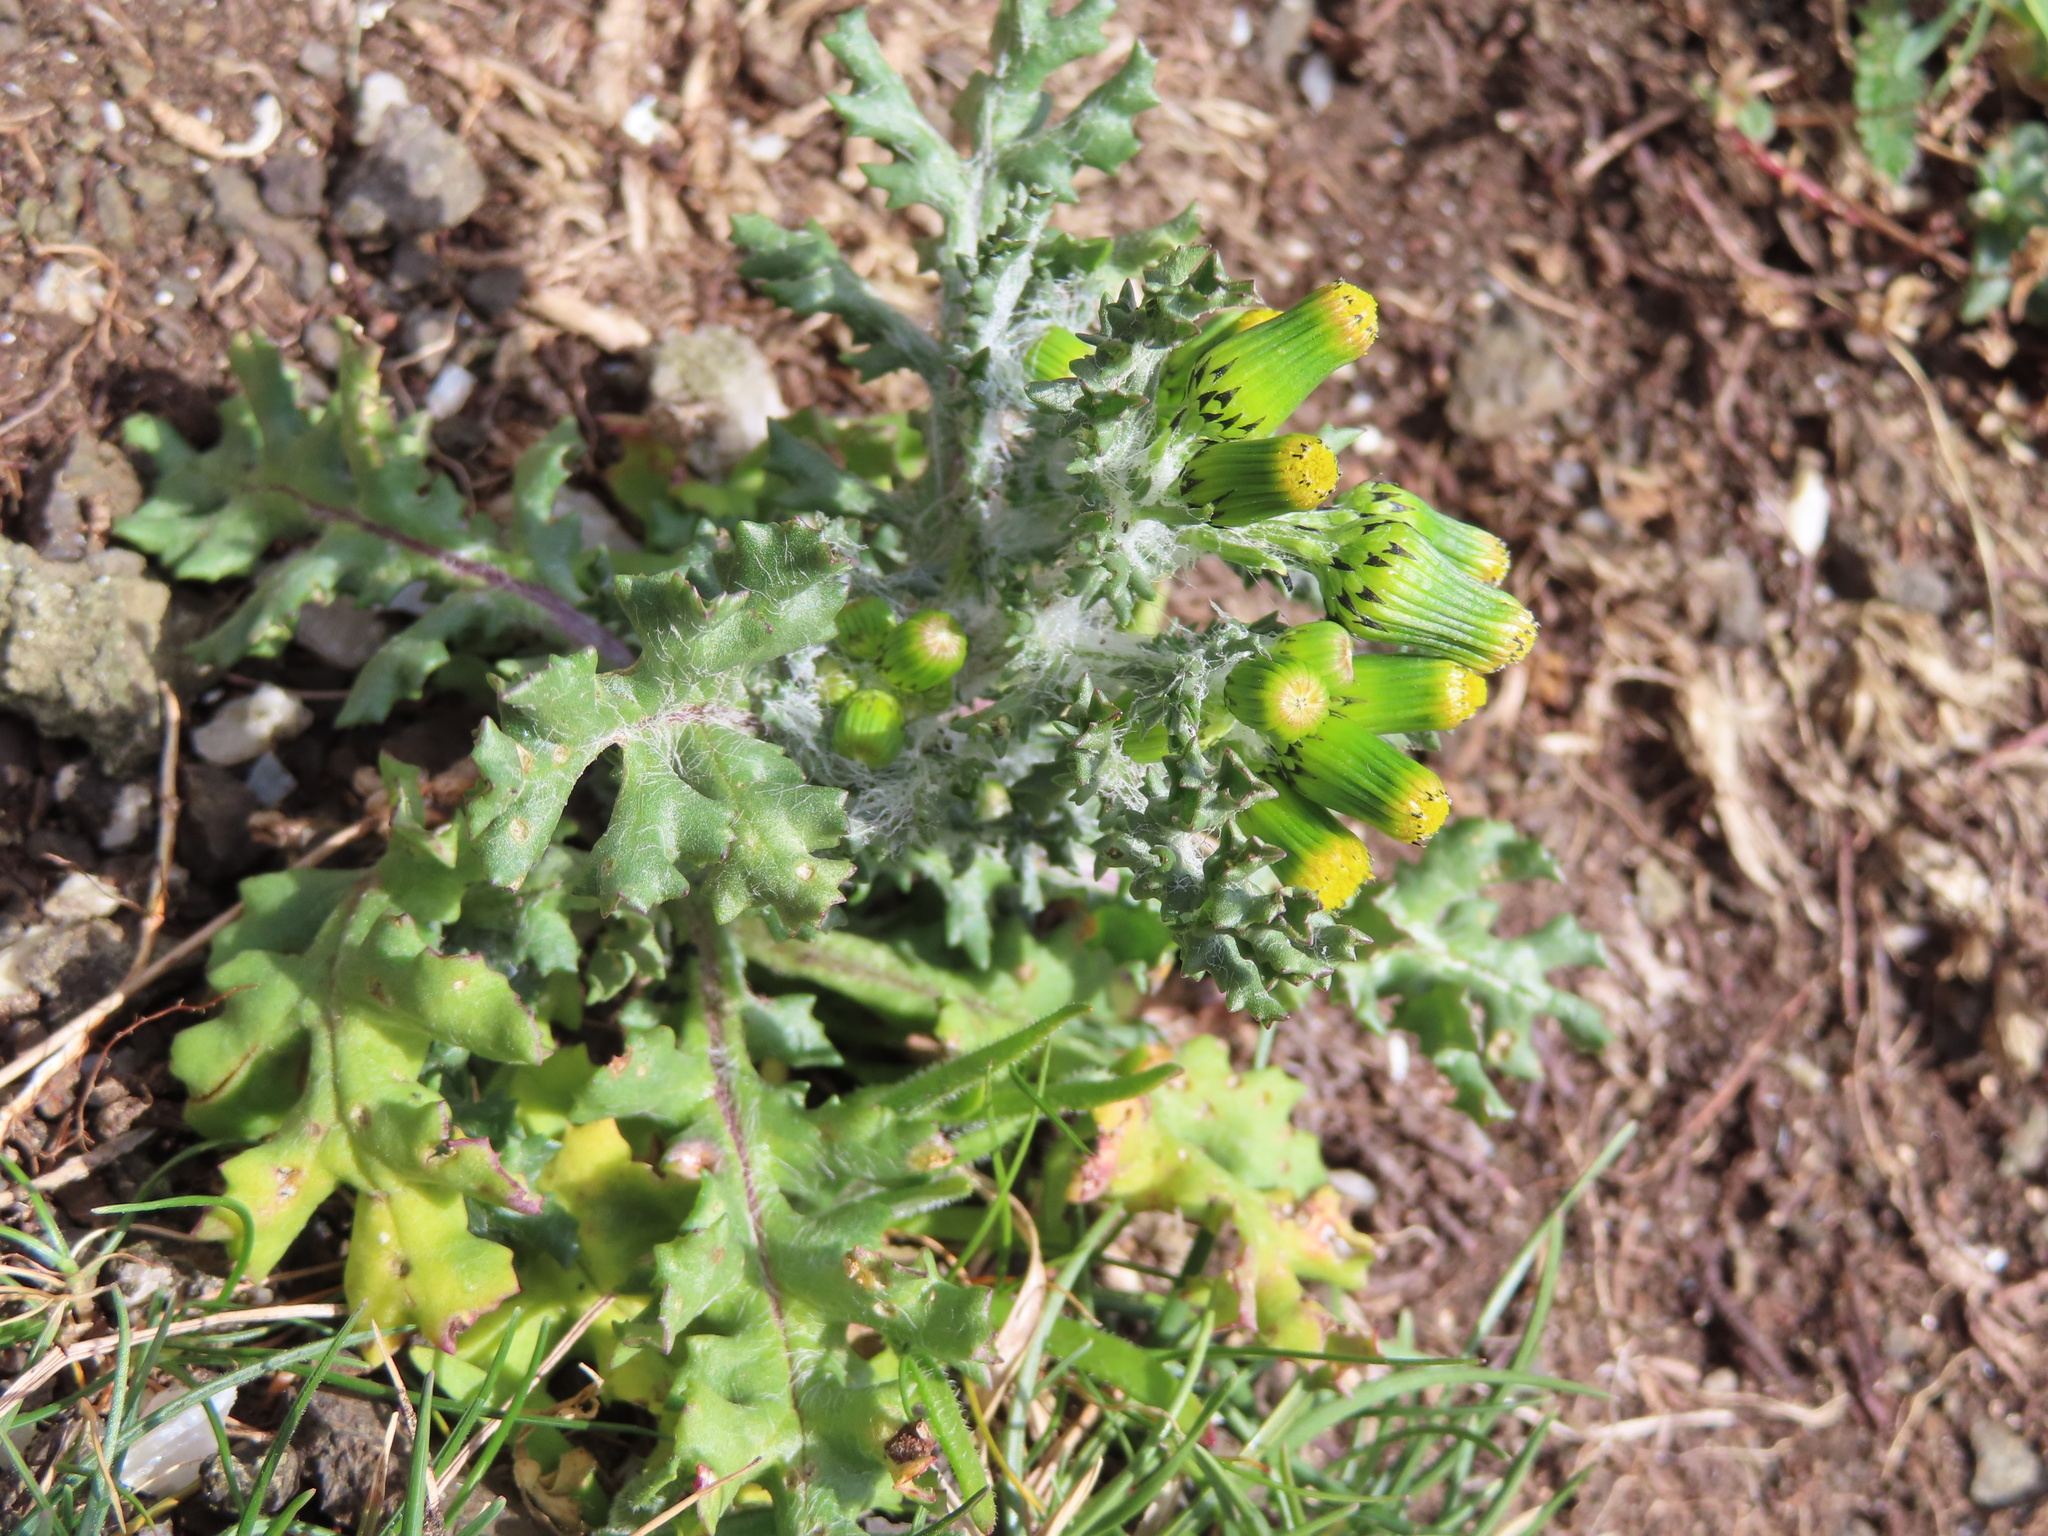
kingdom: Plantae
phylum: Tracheophyta
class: Magnoliopsida
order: Asterales
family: Asteraceae
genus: Senecio
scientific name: Senecio vulgaris
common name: Old-man-in-the-spring
